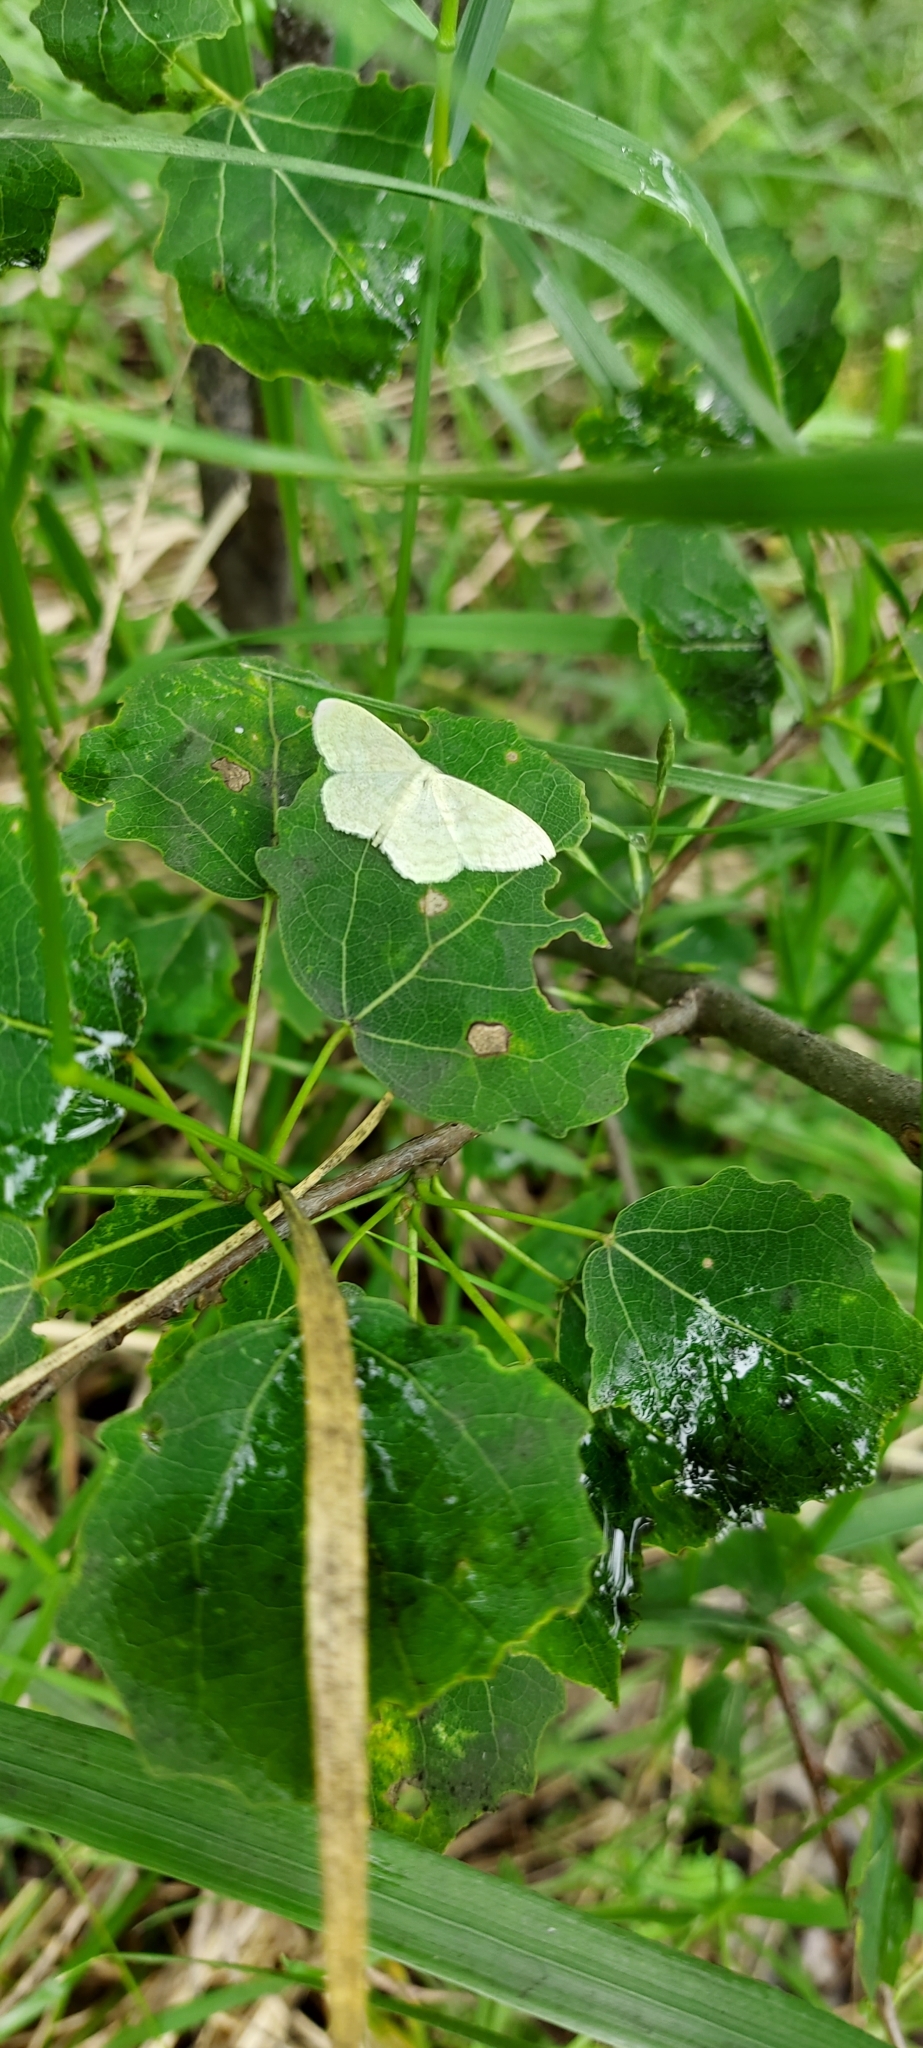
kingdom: Animalia
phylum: Arthropoda
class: Insecta
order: Lepidoptera
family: Geometridae
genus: Scopula
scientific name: Scopula floslactata
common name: Cream wave
